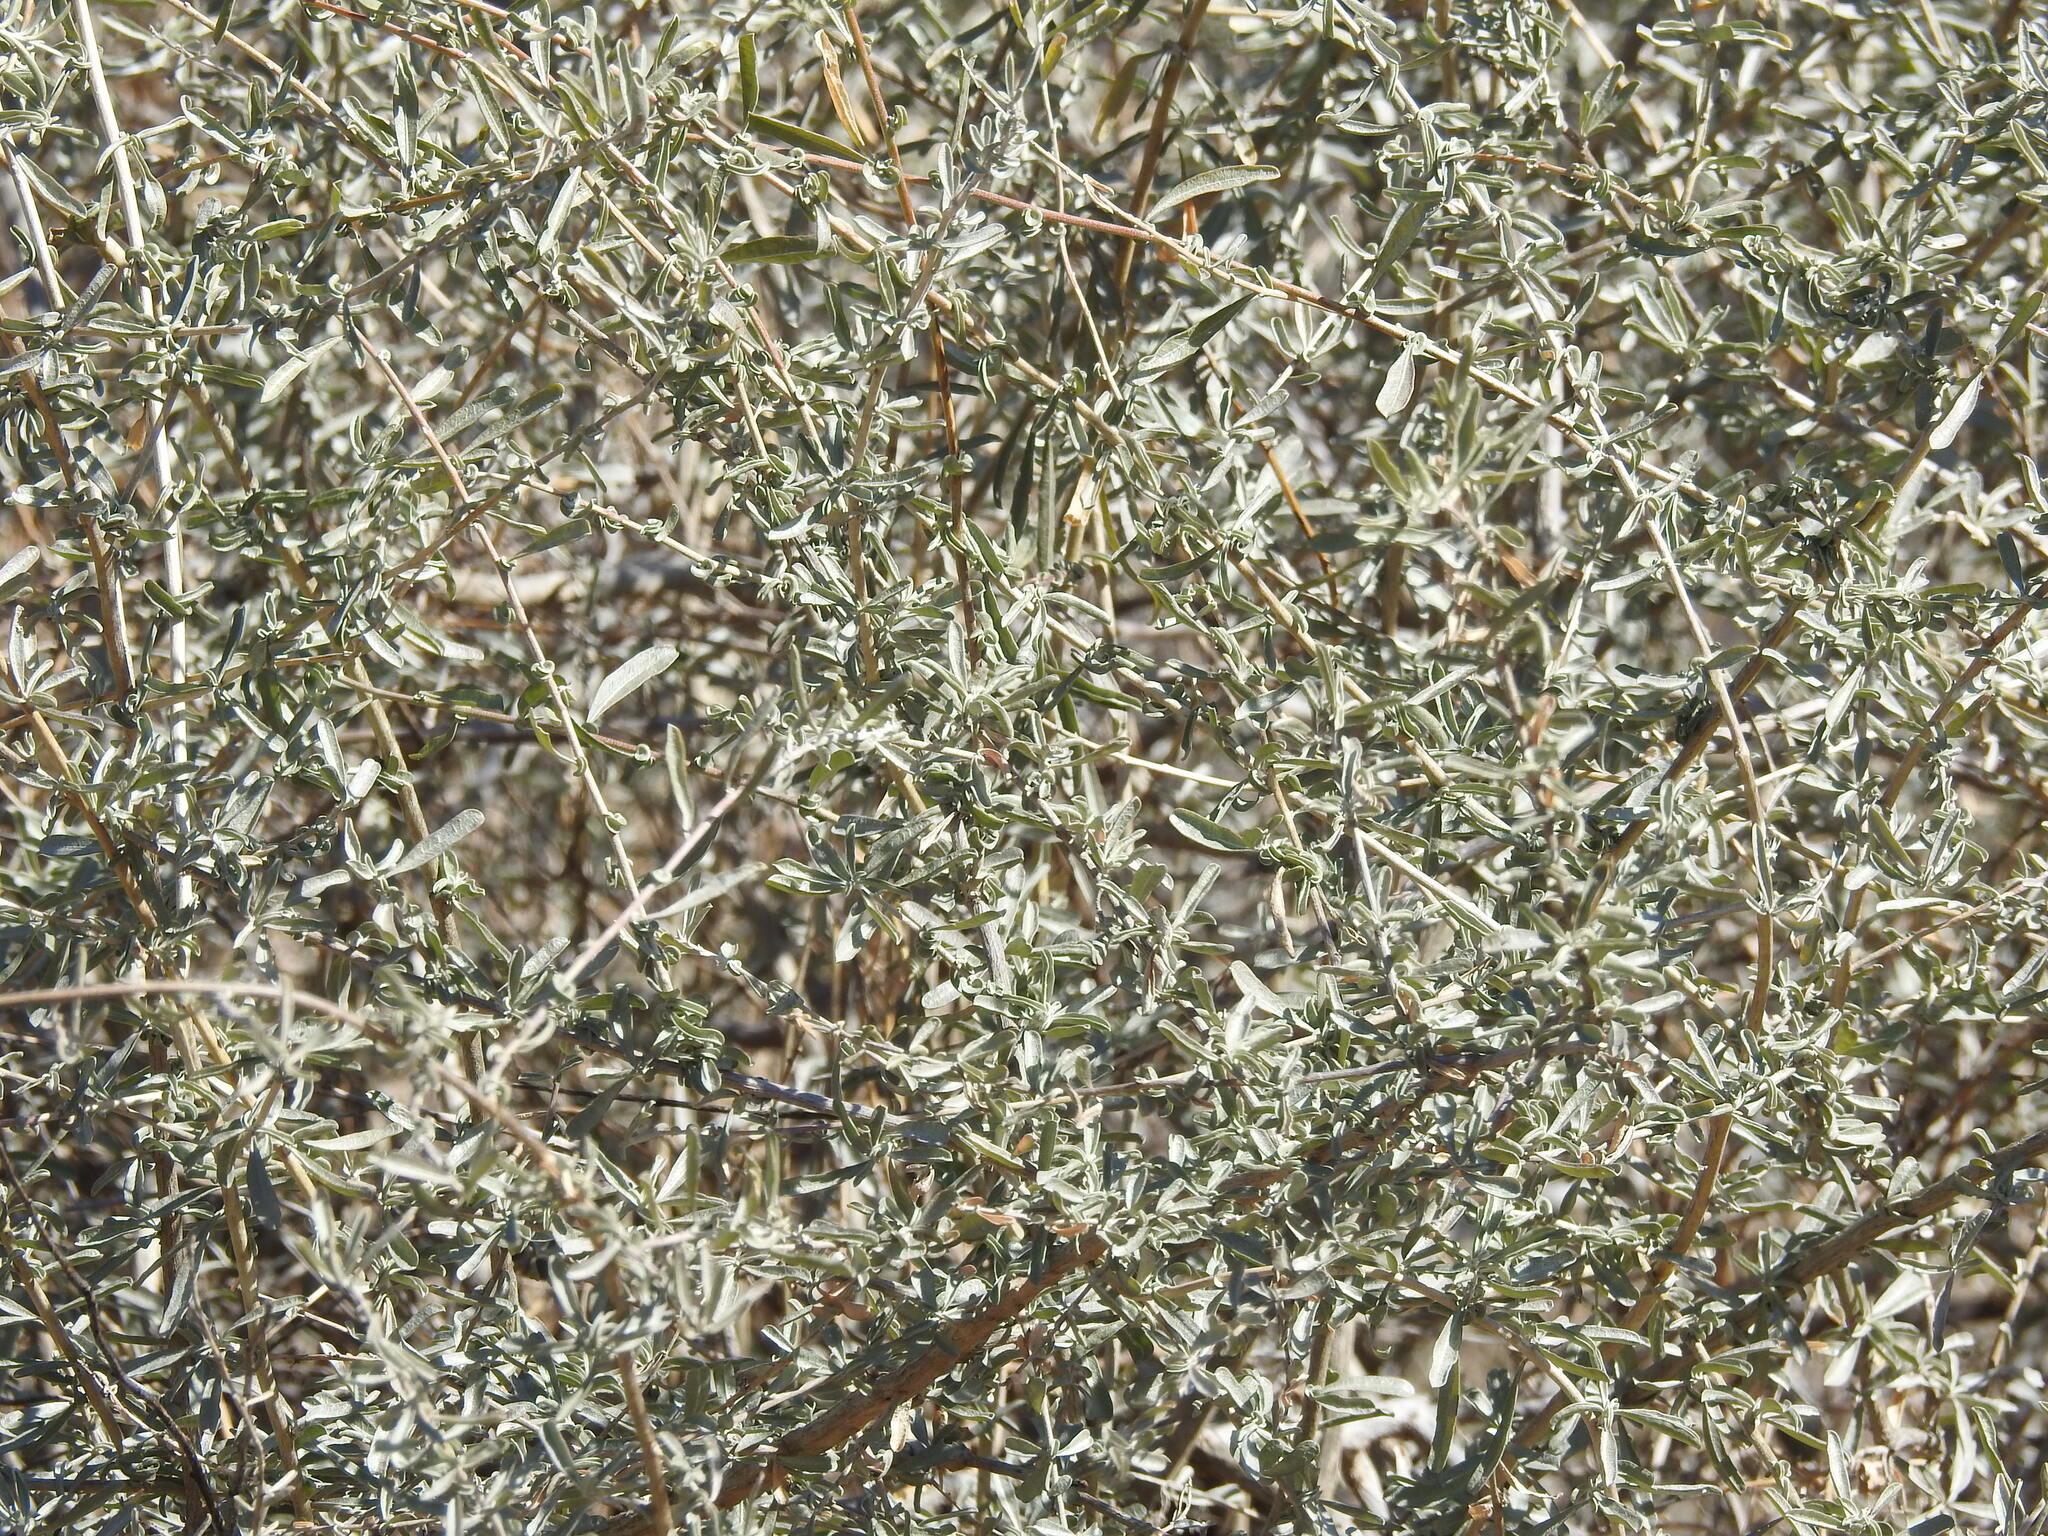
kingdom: Plantae
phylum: Tracheophyta
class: Magnoliopsida
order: Caryophyllales
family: Amaranthaceae
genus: Atriplex
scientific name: Atriplex canescens
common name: Four-wing saltbush
